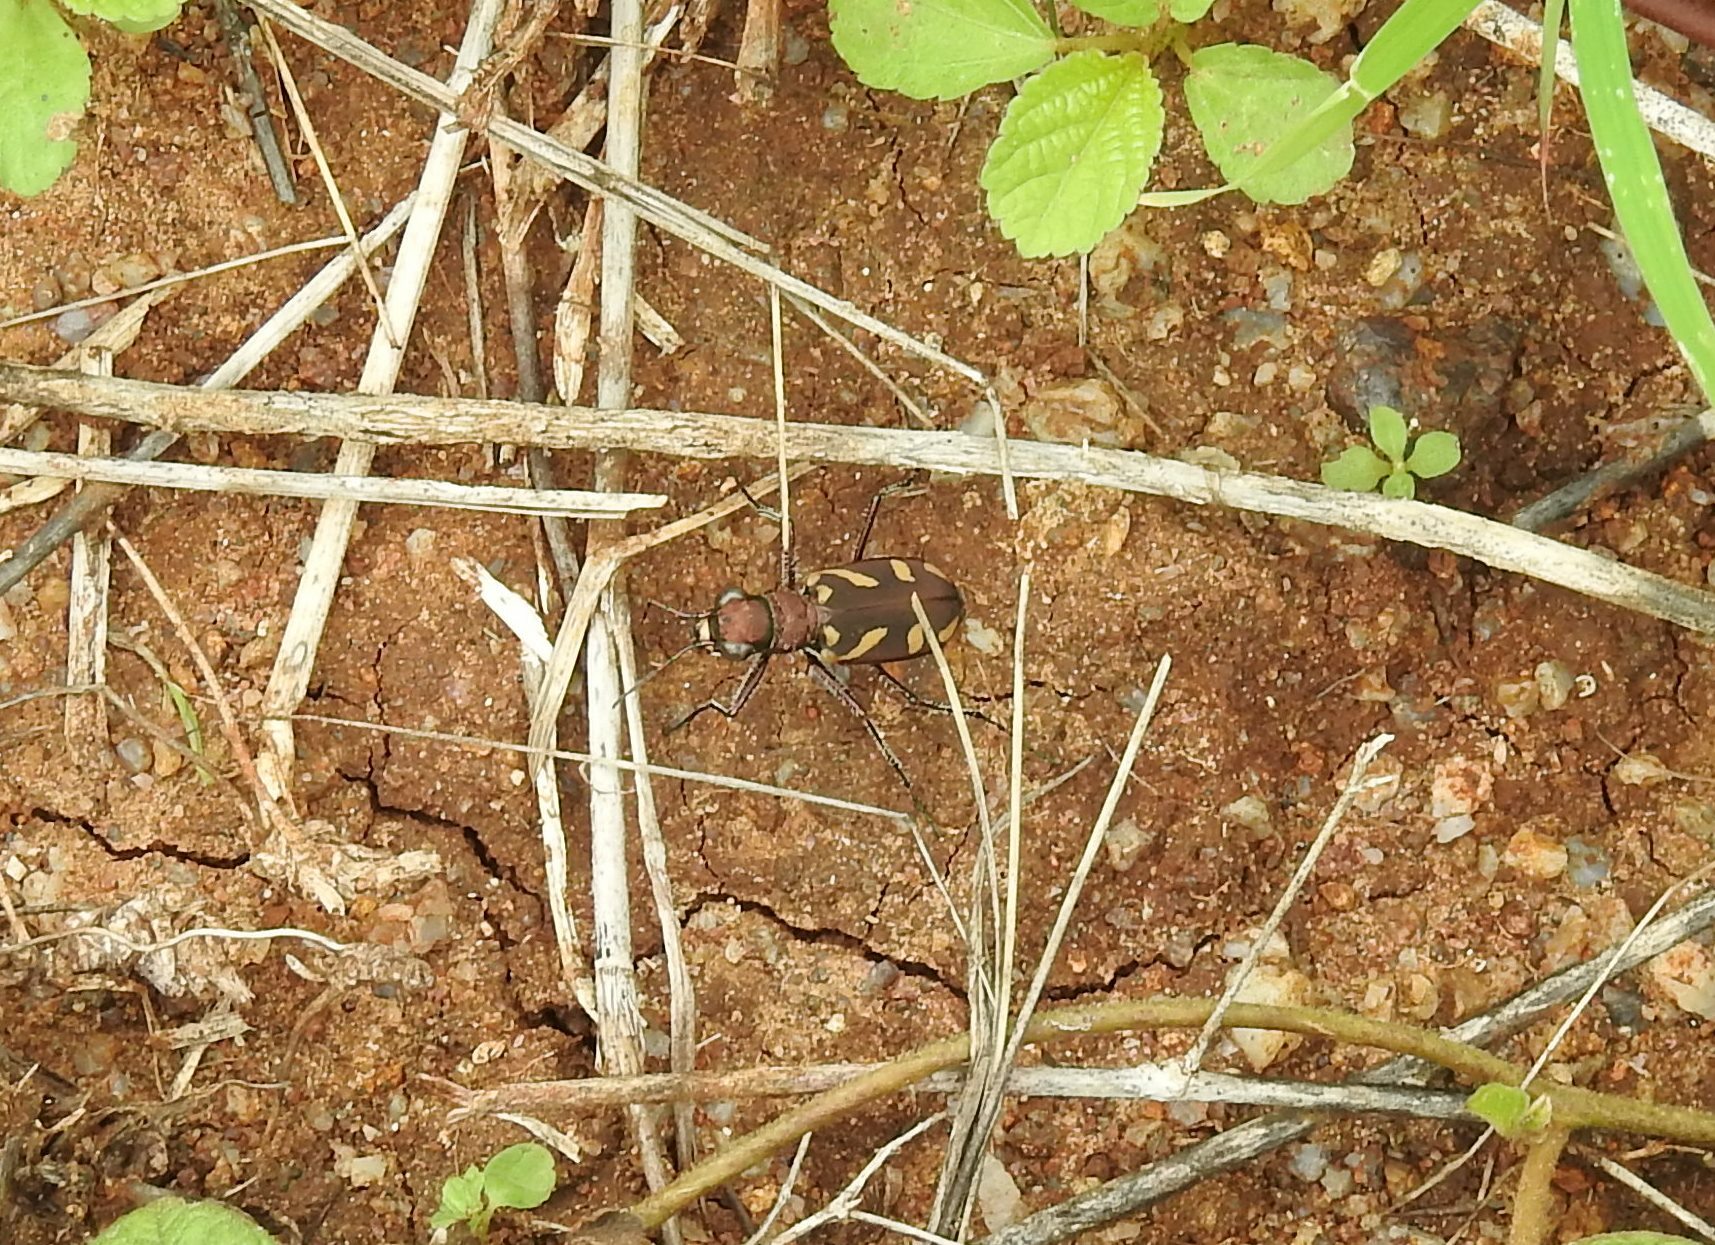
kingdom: Animalia
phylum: Arthropoda
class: Insecta
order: Coleoptera
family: Carabidae
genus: Cicindela
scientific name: Cicindela calligramma
